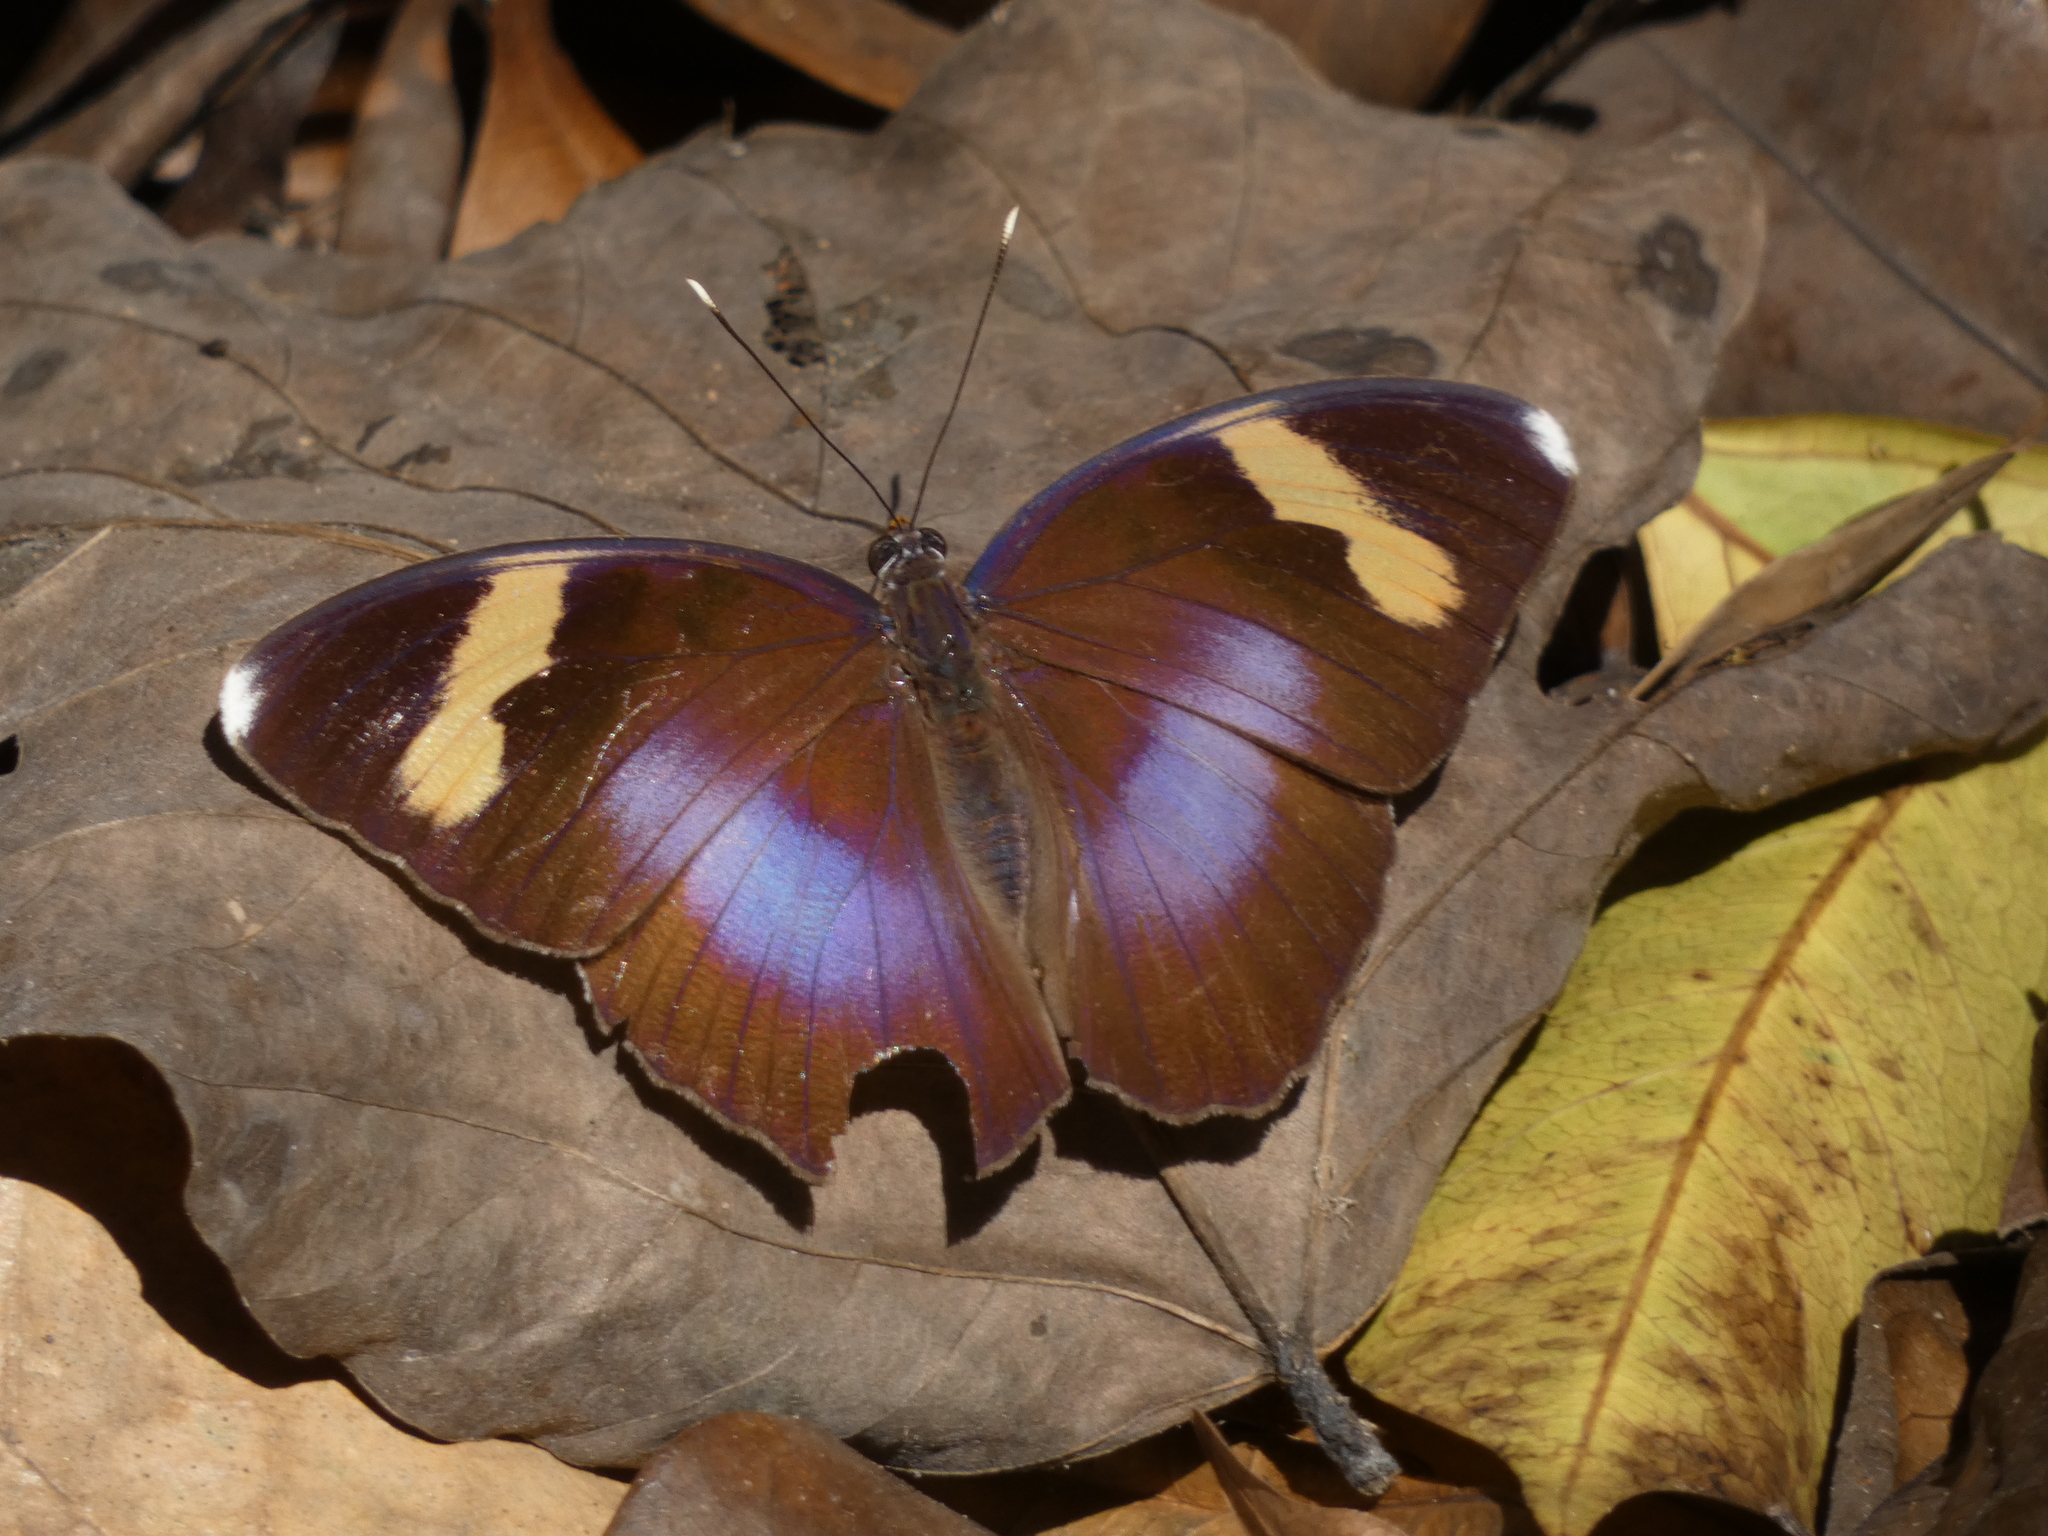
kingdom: Animalia
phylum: Arthropoda
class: Insecta
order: Lepidoptera
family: Nymphalidae
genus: Euphaedra
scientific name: Euphaedra medon
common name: Widespread forester
